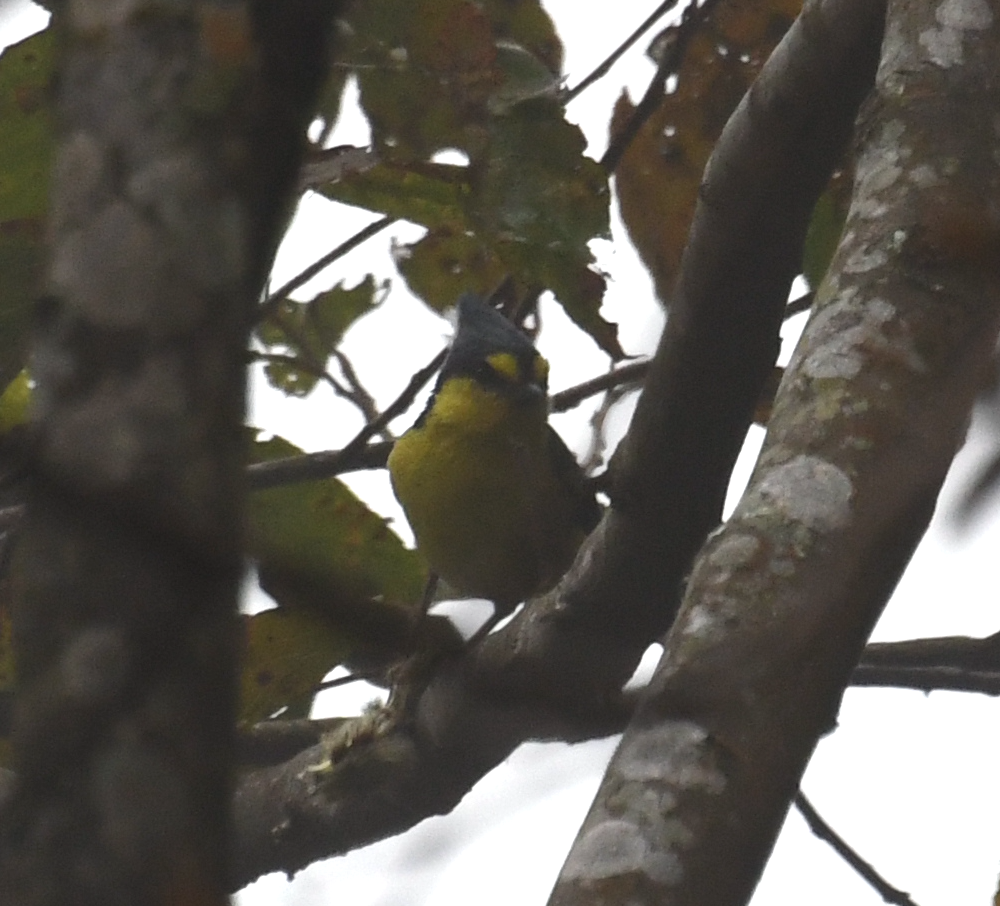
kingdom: Animalia
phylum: Chordata
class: Aves
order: Passeriformes
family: Paridae
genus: Parus
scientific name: Parus holsti
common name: Yellow tit
